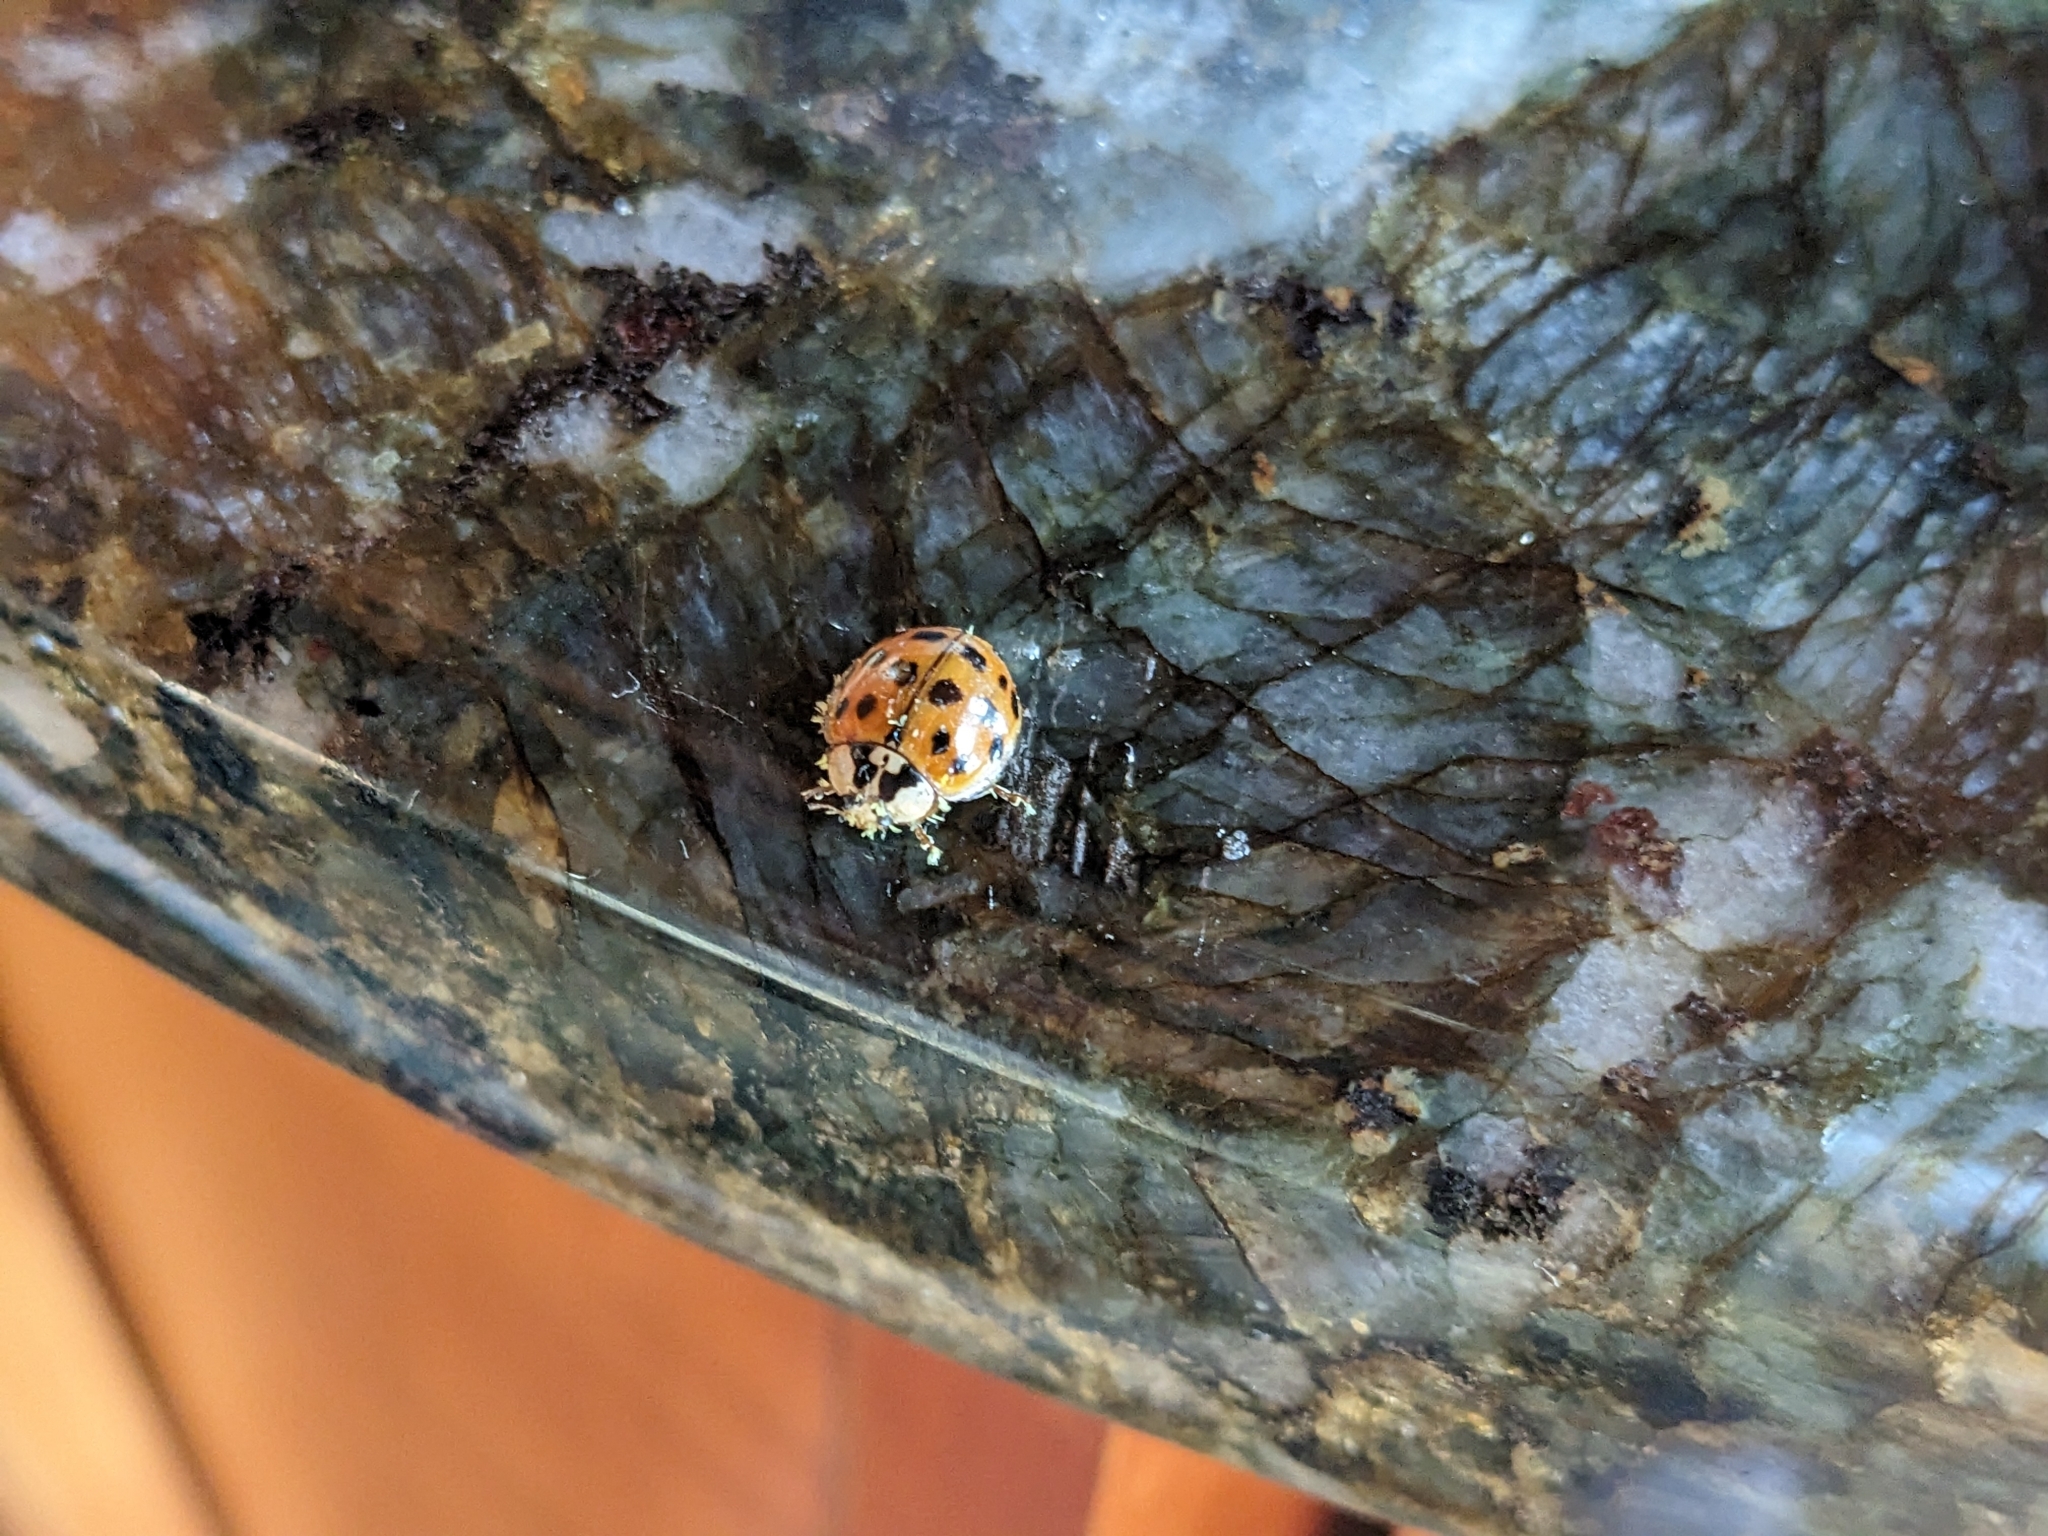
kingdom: Animalia
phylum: Arthropoda
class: Insecta
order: Coleoptera
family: Coccinellidae
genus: Harmonia
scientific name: Harmonia axyridis
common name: Harlequin ladybird
